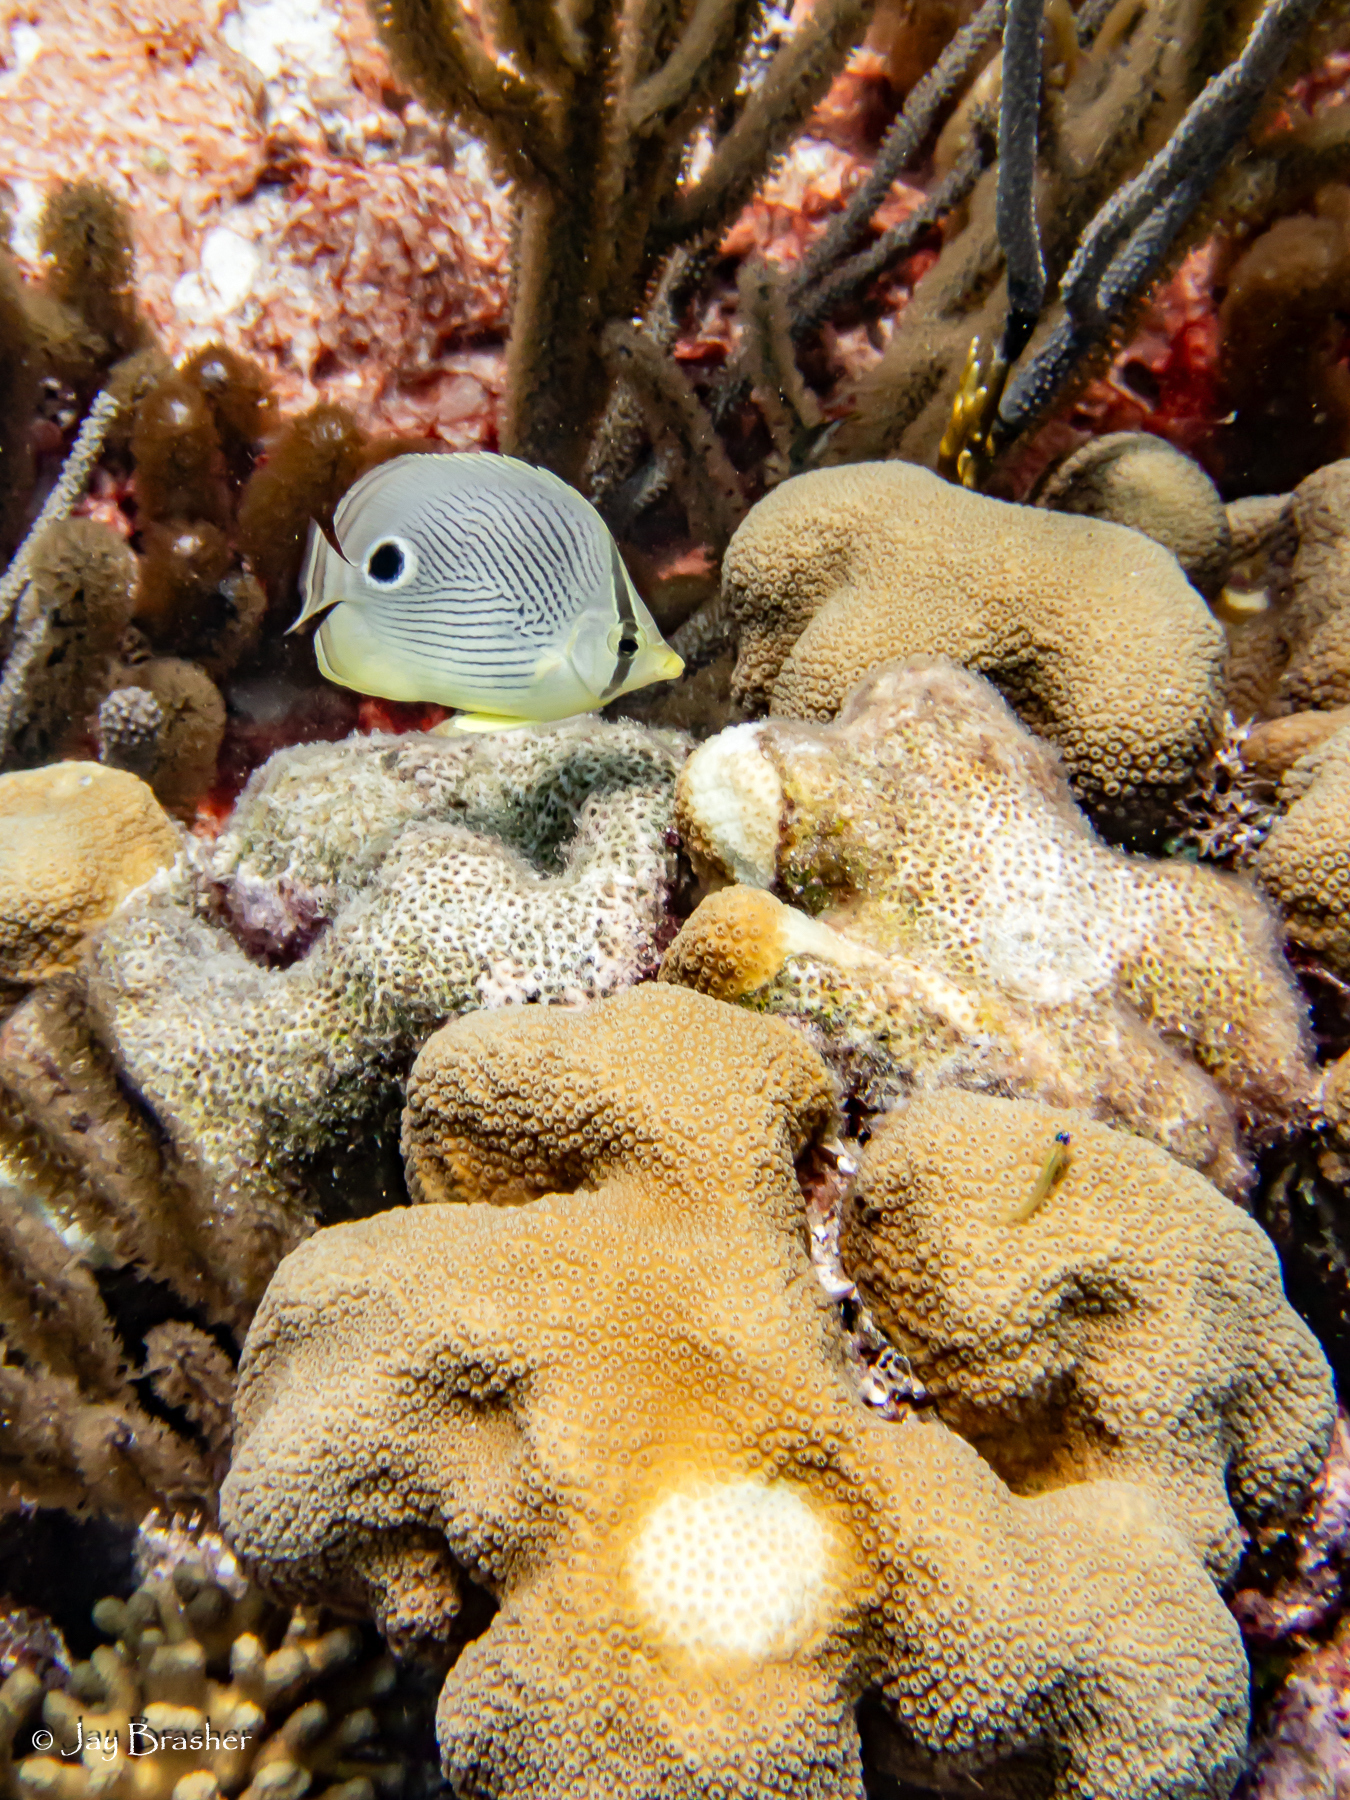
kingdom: Animalia
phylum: Cnidaria
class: Anthozoa
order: Scleractinia
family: Merulinidae
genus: Orbicella
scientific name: Orbicella annularis
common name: Boulder star coral
